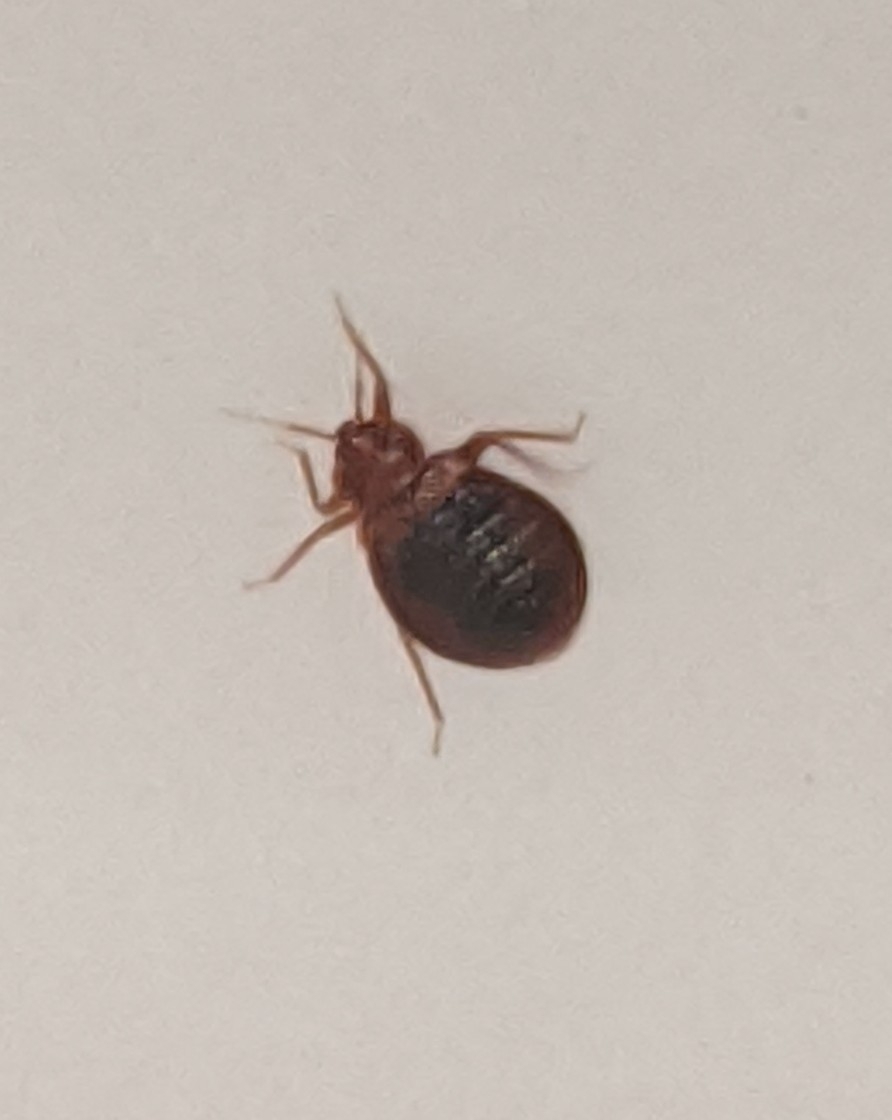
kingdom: Animalia
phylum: Arthropoda
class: Insecta
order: Hemiptera
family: Cimicidae
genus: Cimex
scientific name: Cimex lectularius
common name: Bed bug
